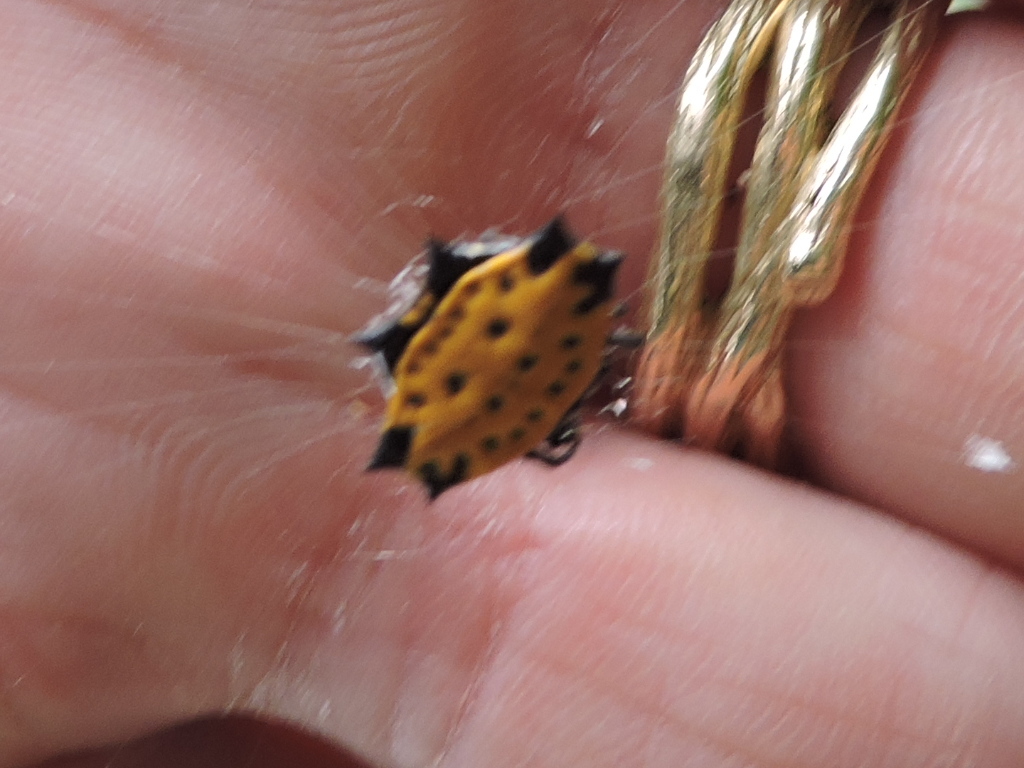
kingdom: Animalia
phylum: Arthropoda
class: Arachnida
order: Araneae
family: Araneidae
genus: Gasteracantha
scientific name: Gasteracantha cancriformis
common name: Orb weavers
